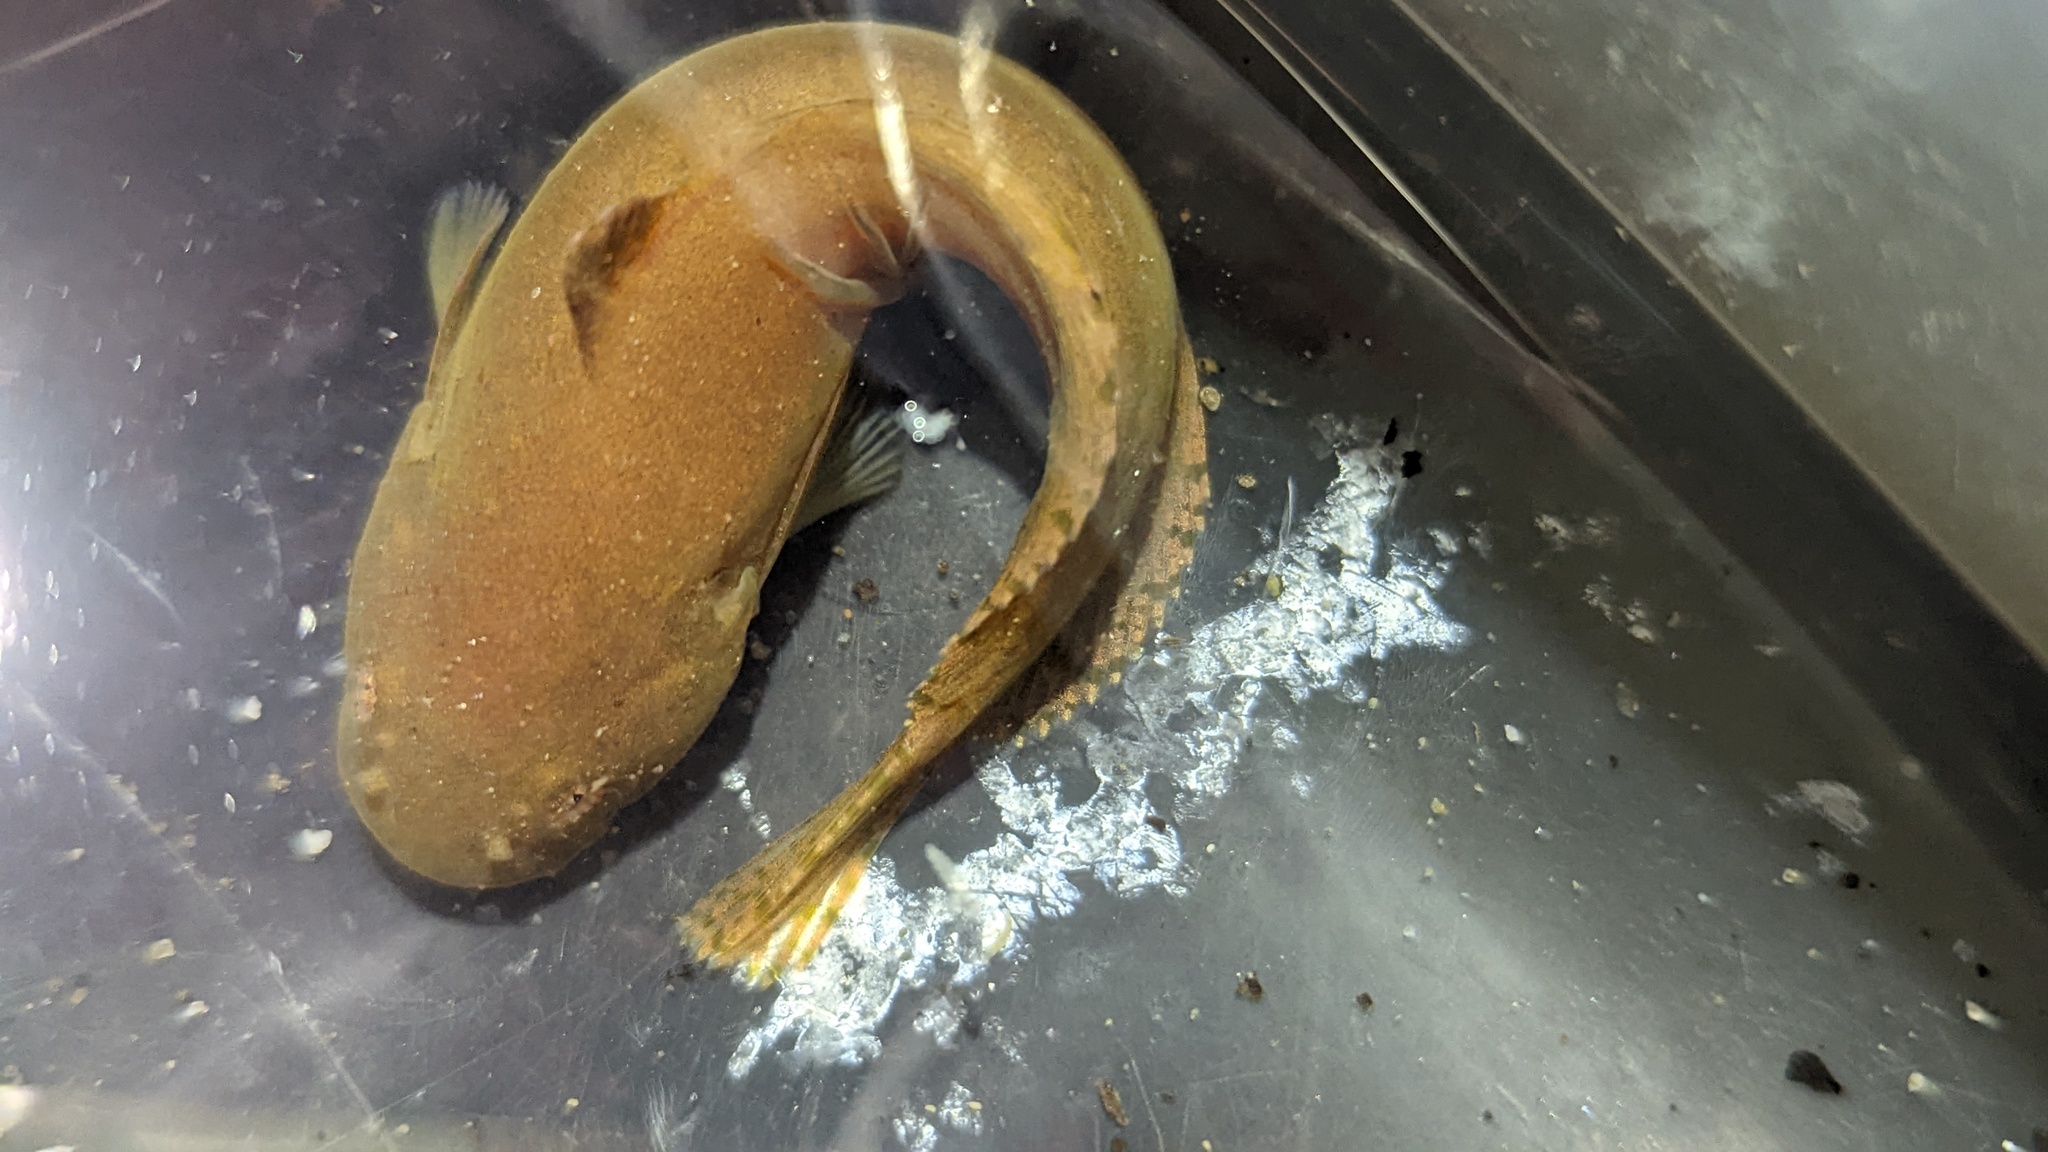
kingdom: Animalia
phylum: Chordata
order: Scorpaeniformes
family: Liparidae
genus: Liparis
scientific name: Liparis florae
